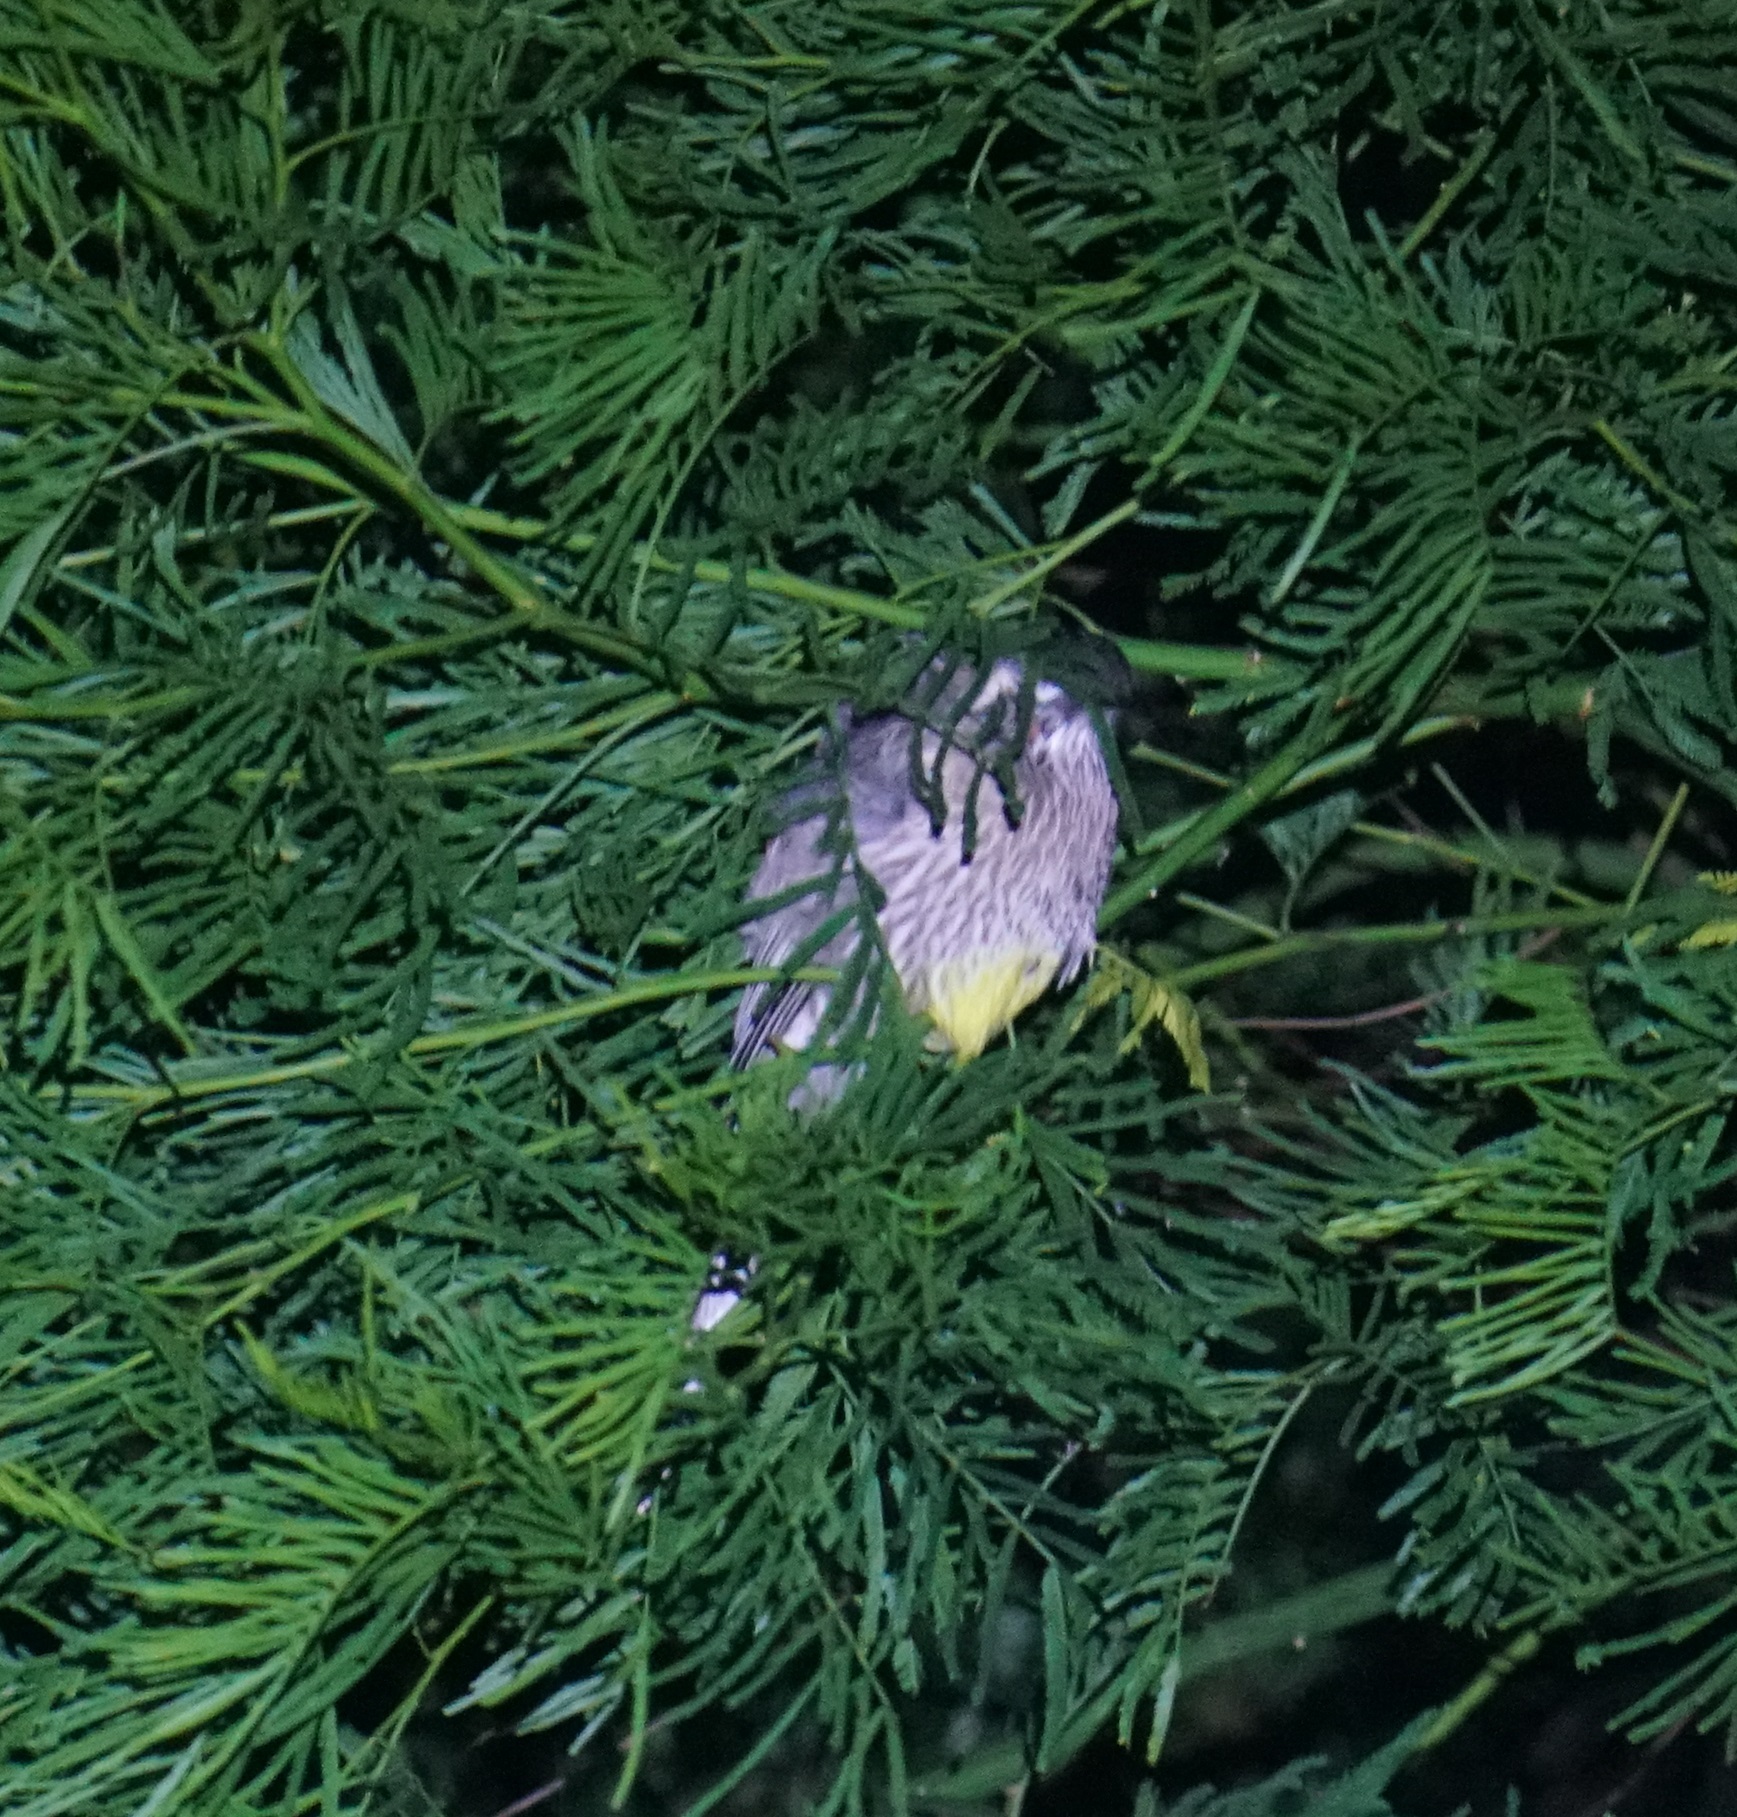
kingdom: Animalia
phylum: Chordata
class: Aves
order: Passeriformes
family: Meliphagidae
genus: Anthochaera
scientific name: Anthochaera carunculata
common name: Red wattlebird
